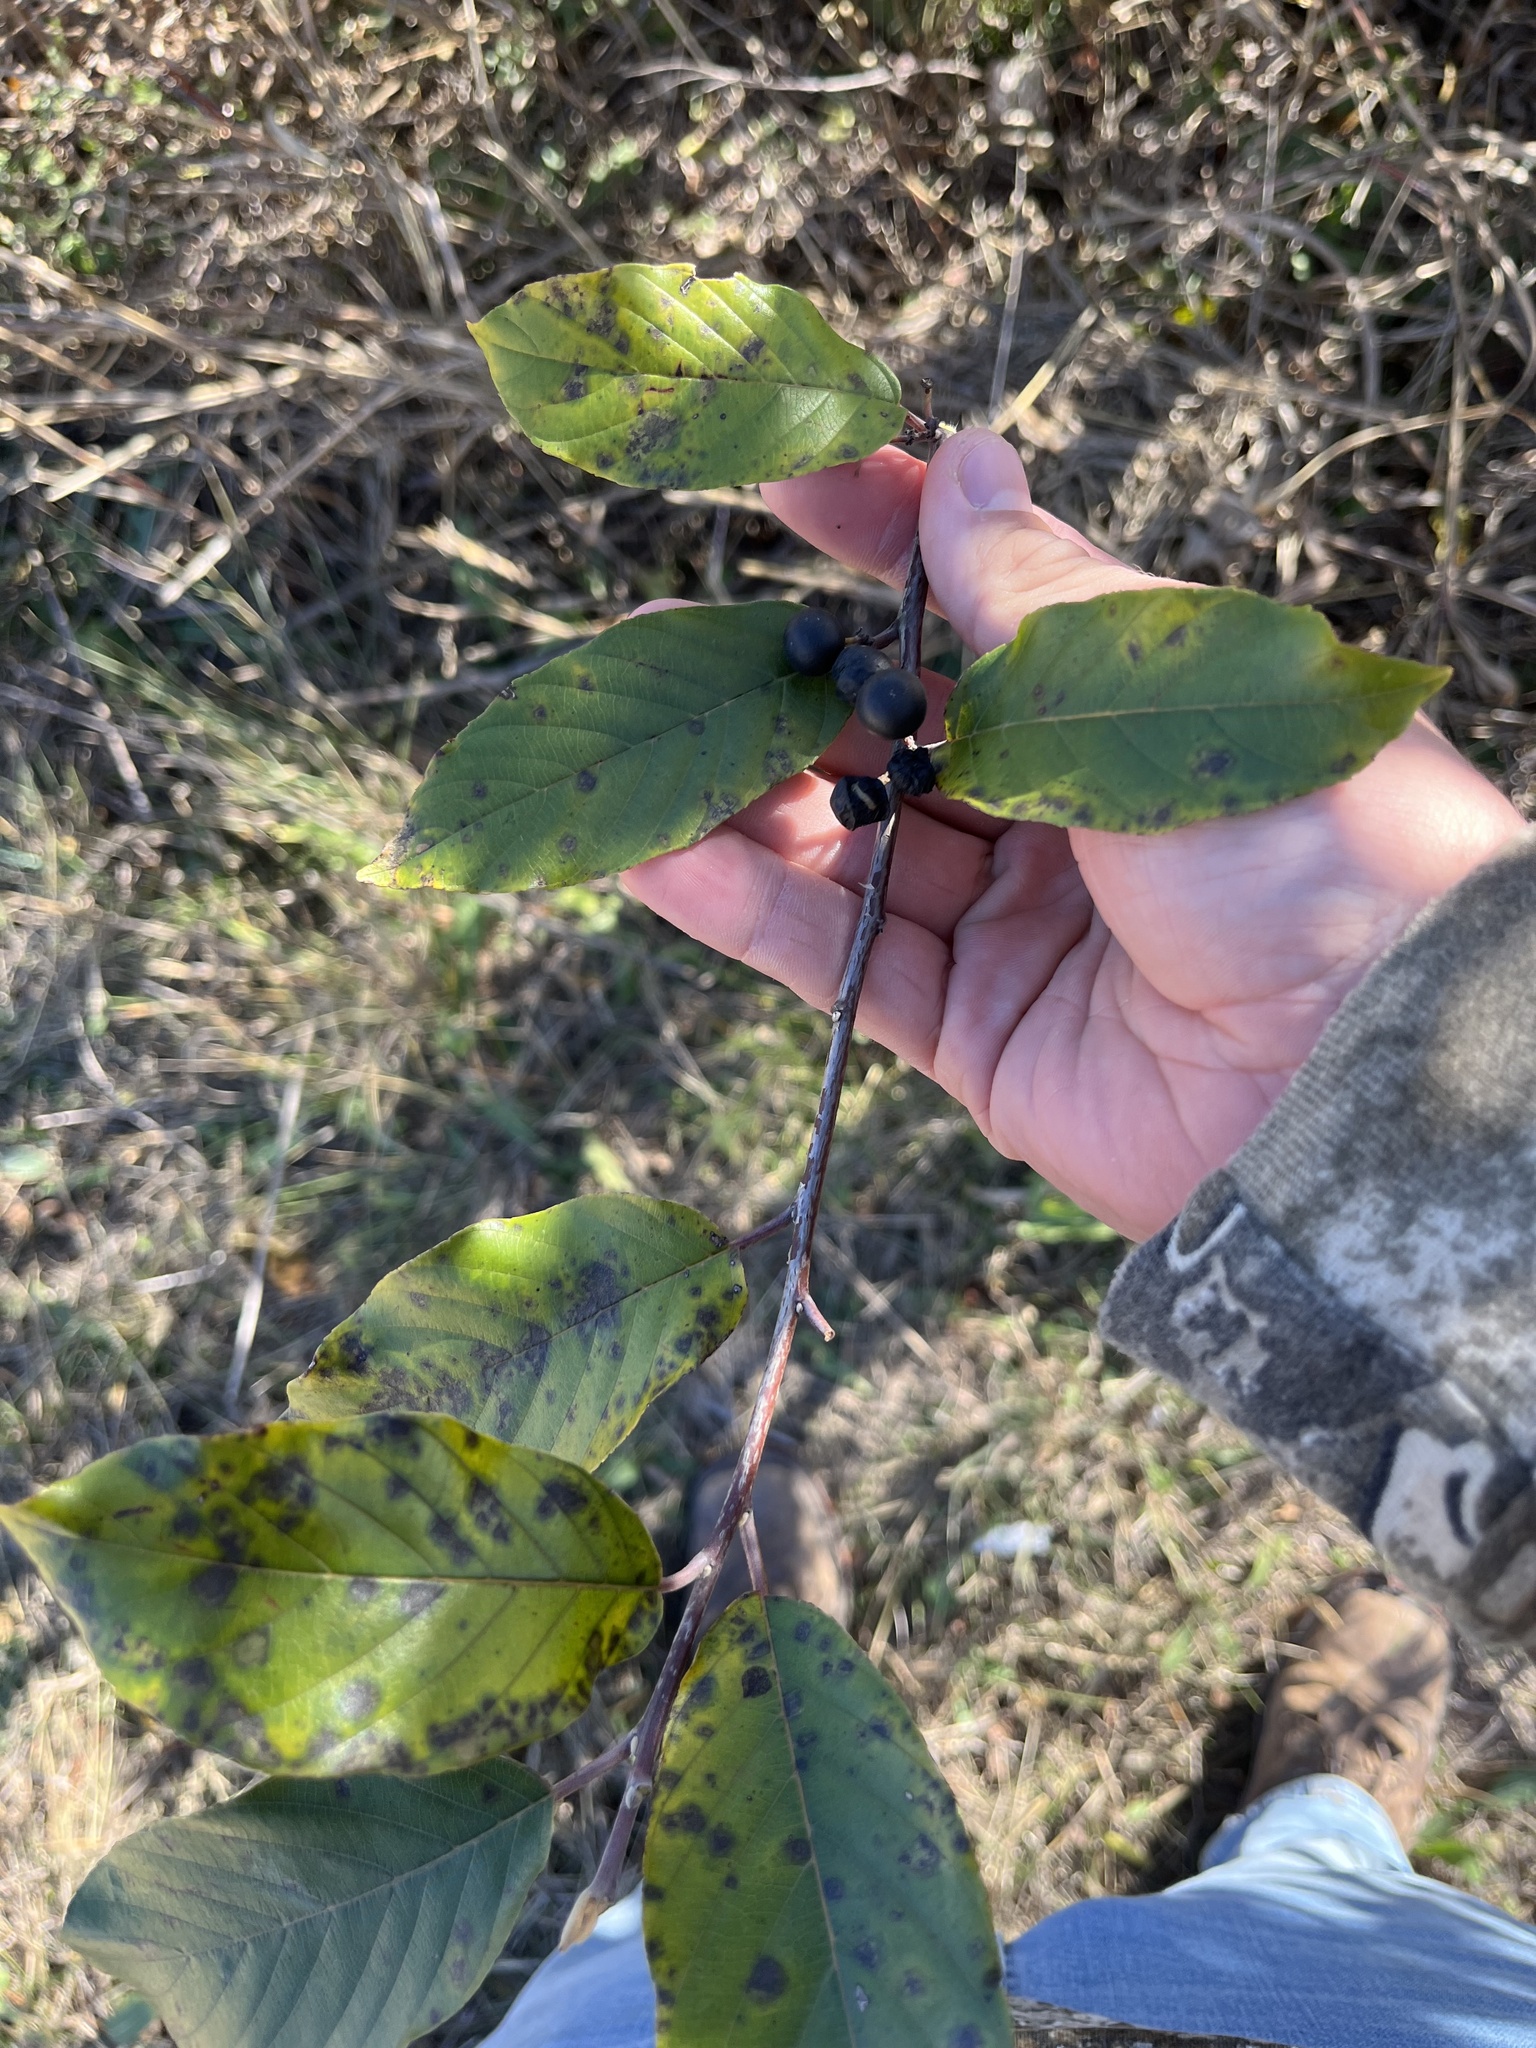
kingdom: Plantae
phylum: Tracheophyta
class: Magnoliopsida
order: Rosales
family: Rhamnaceae
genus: Frangula
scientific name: Frangula caroliniana
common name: Carolina buckthorn
